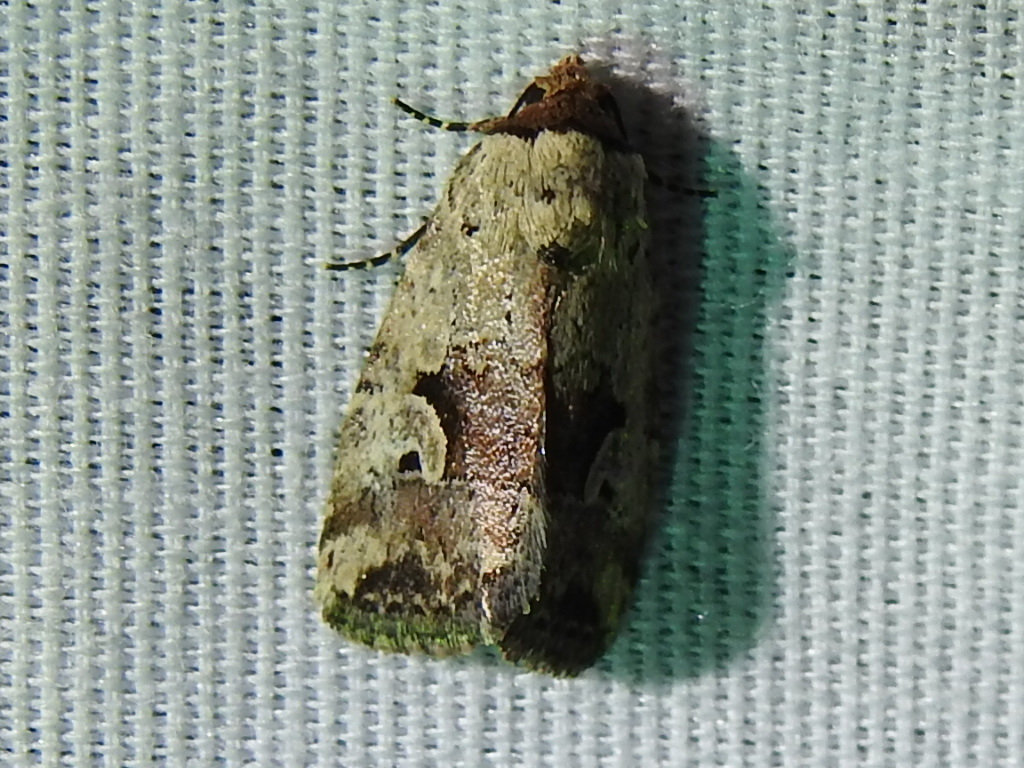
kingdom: Animalia
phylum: Arthropoda
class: Insecta
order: Lepidoptera
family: Noctuidae
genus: Elaphria
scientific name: Elaphria festivoides
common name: Festive midget
